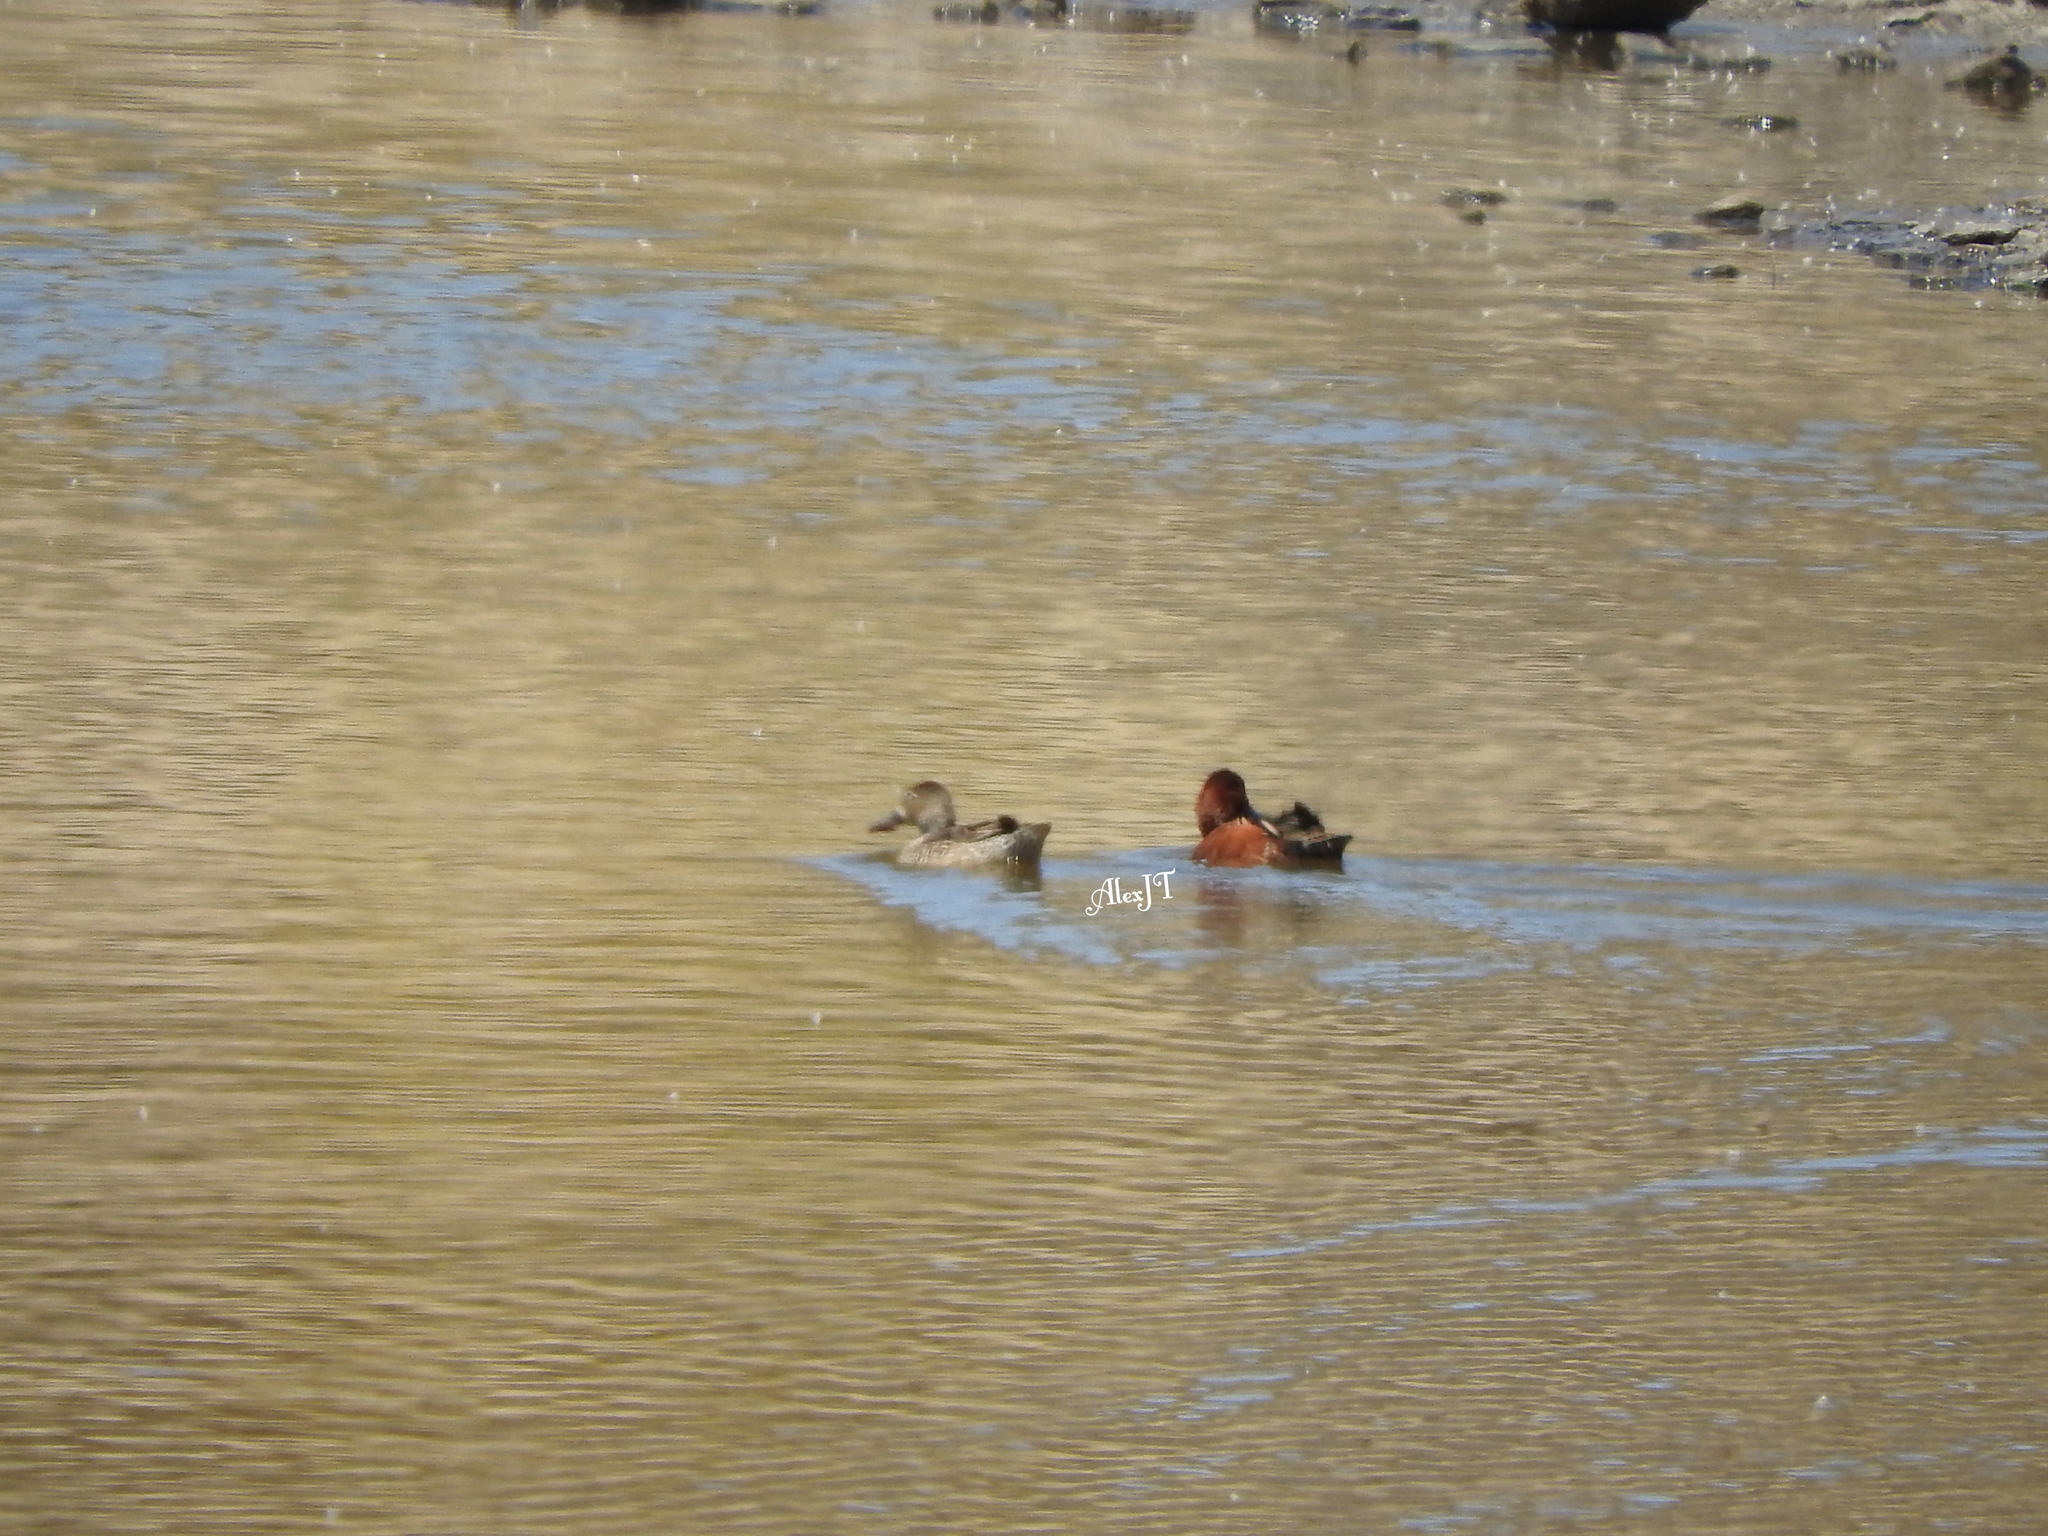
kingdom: Animalia
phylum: Chordata
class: Aves
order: Anseriformes
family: Anatidae
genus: Spatula
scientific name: Spatula cyanoptera
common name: Cinnamon teal
